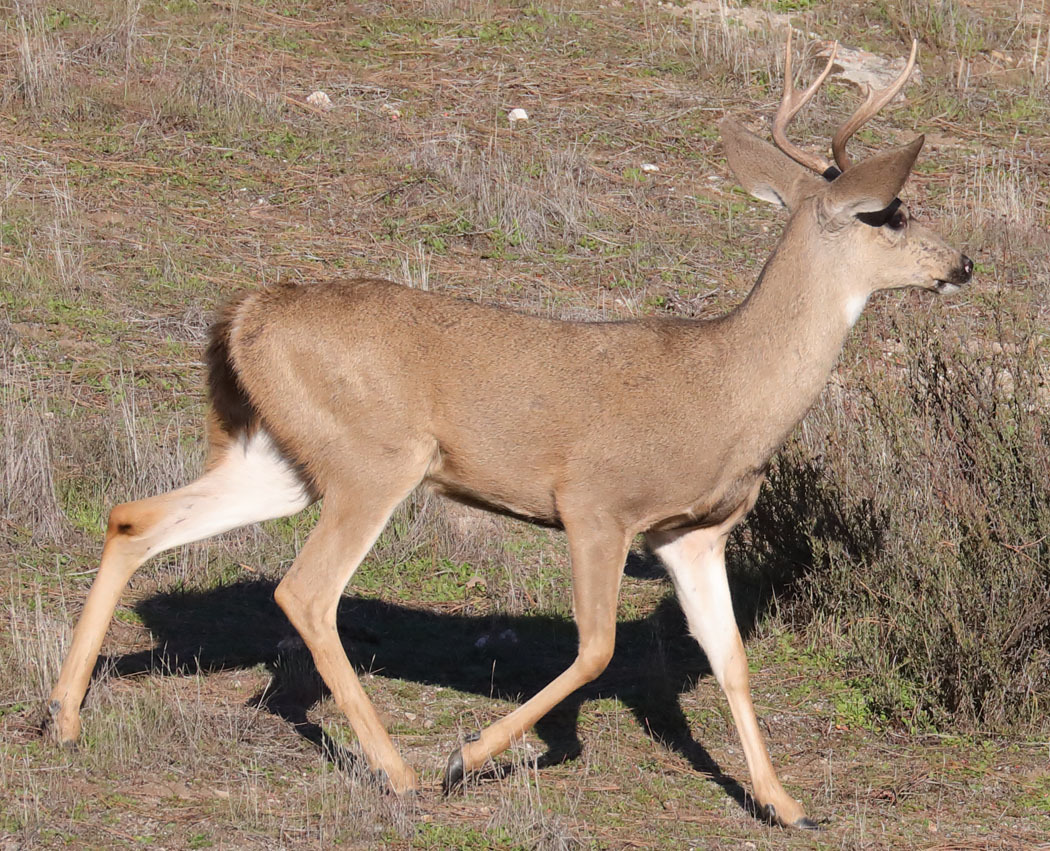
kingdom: Animalia
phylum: Chordata
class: Mammalia
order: Artiodactyla
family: Cervidae
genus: Odocoileus
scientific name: Odocoileus hemionus
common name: Mule deer
